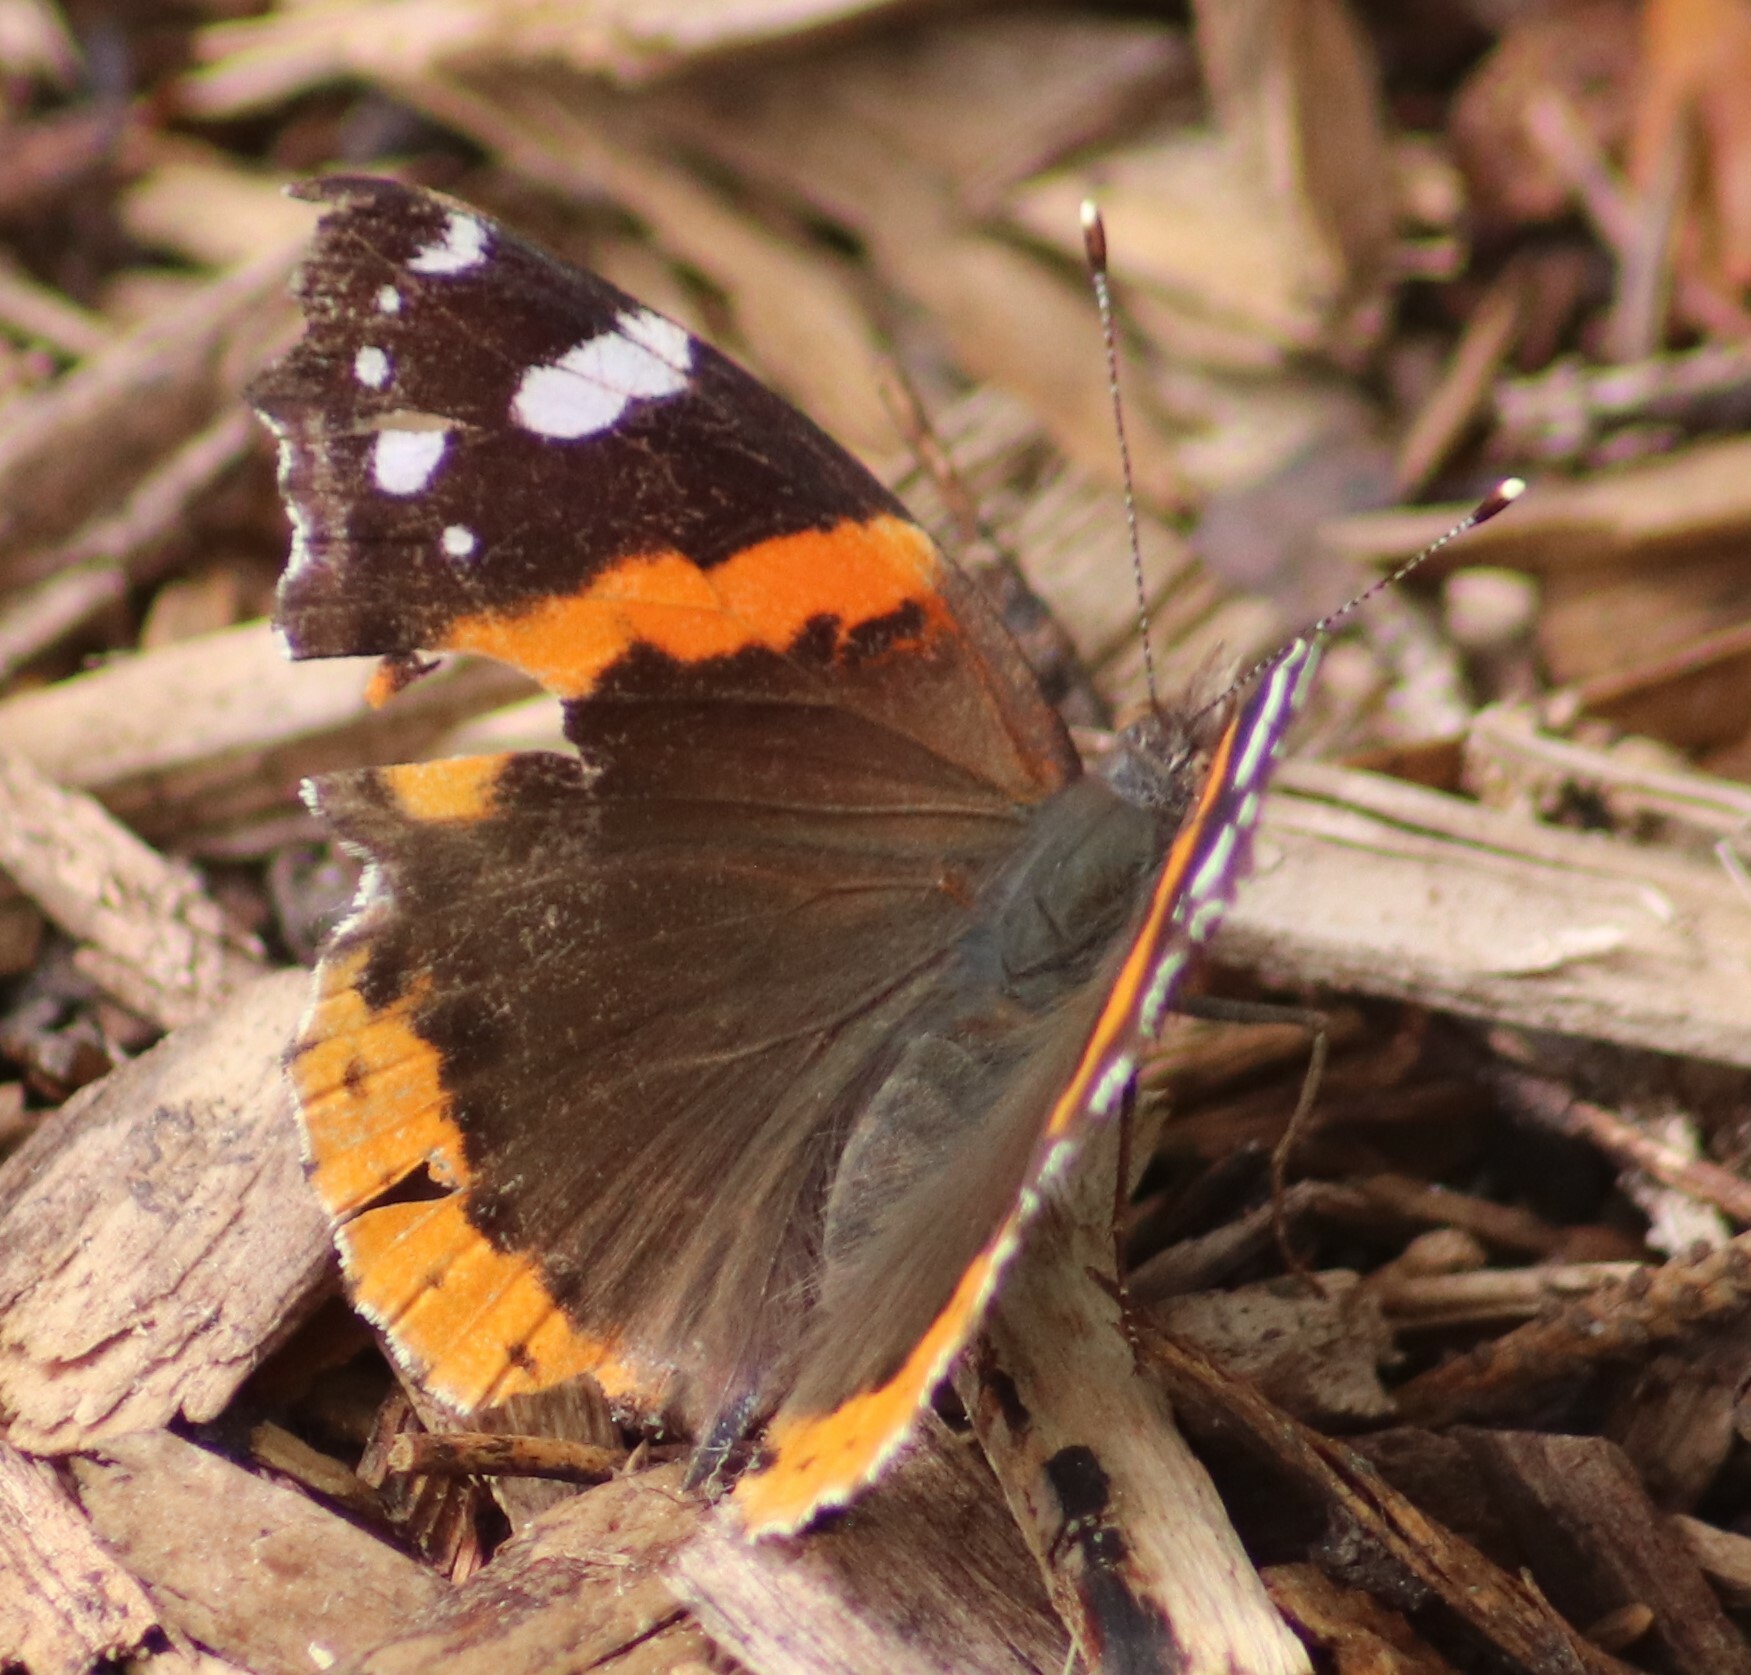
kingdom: Animalia
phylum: Arthropoda
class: Insecta
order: Lepidoptera
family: Nymphalidae
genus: Vanessa
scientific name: Vanessa atalanta
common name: Red admiral
